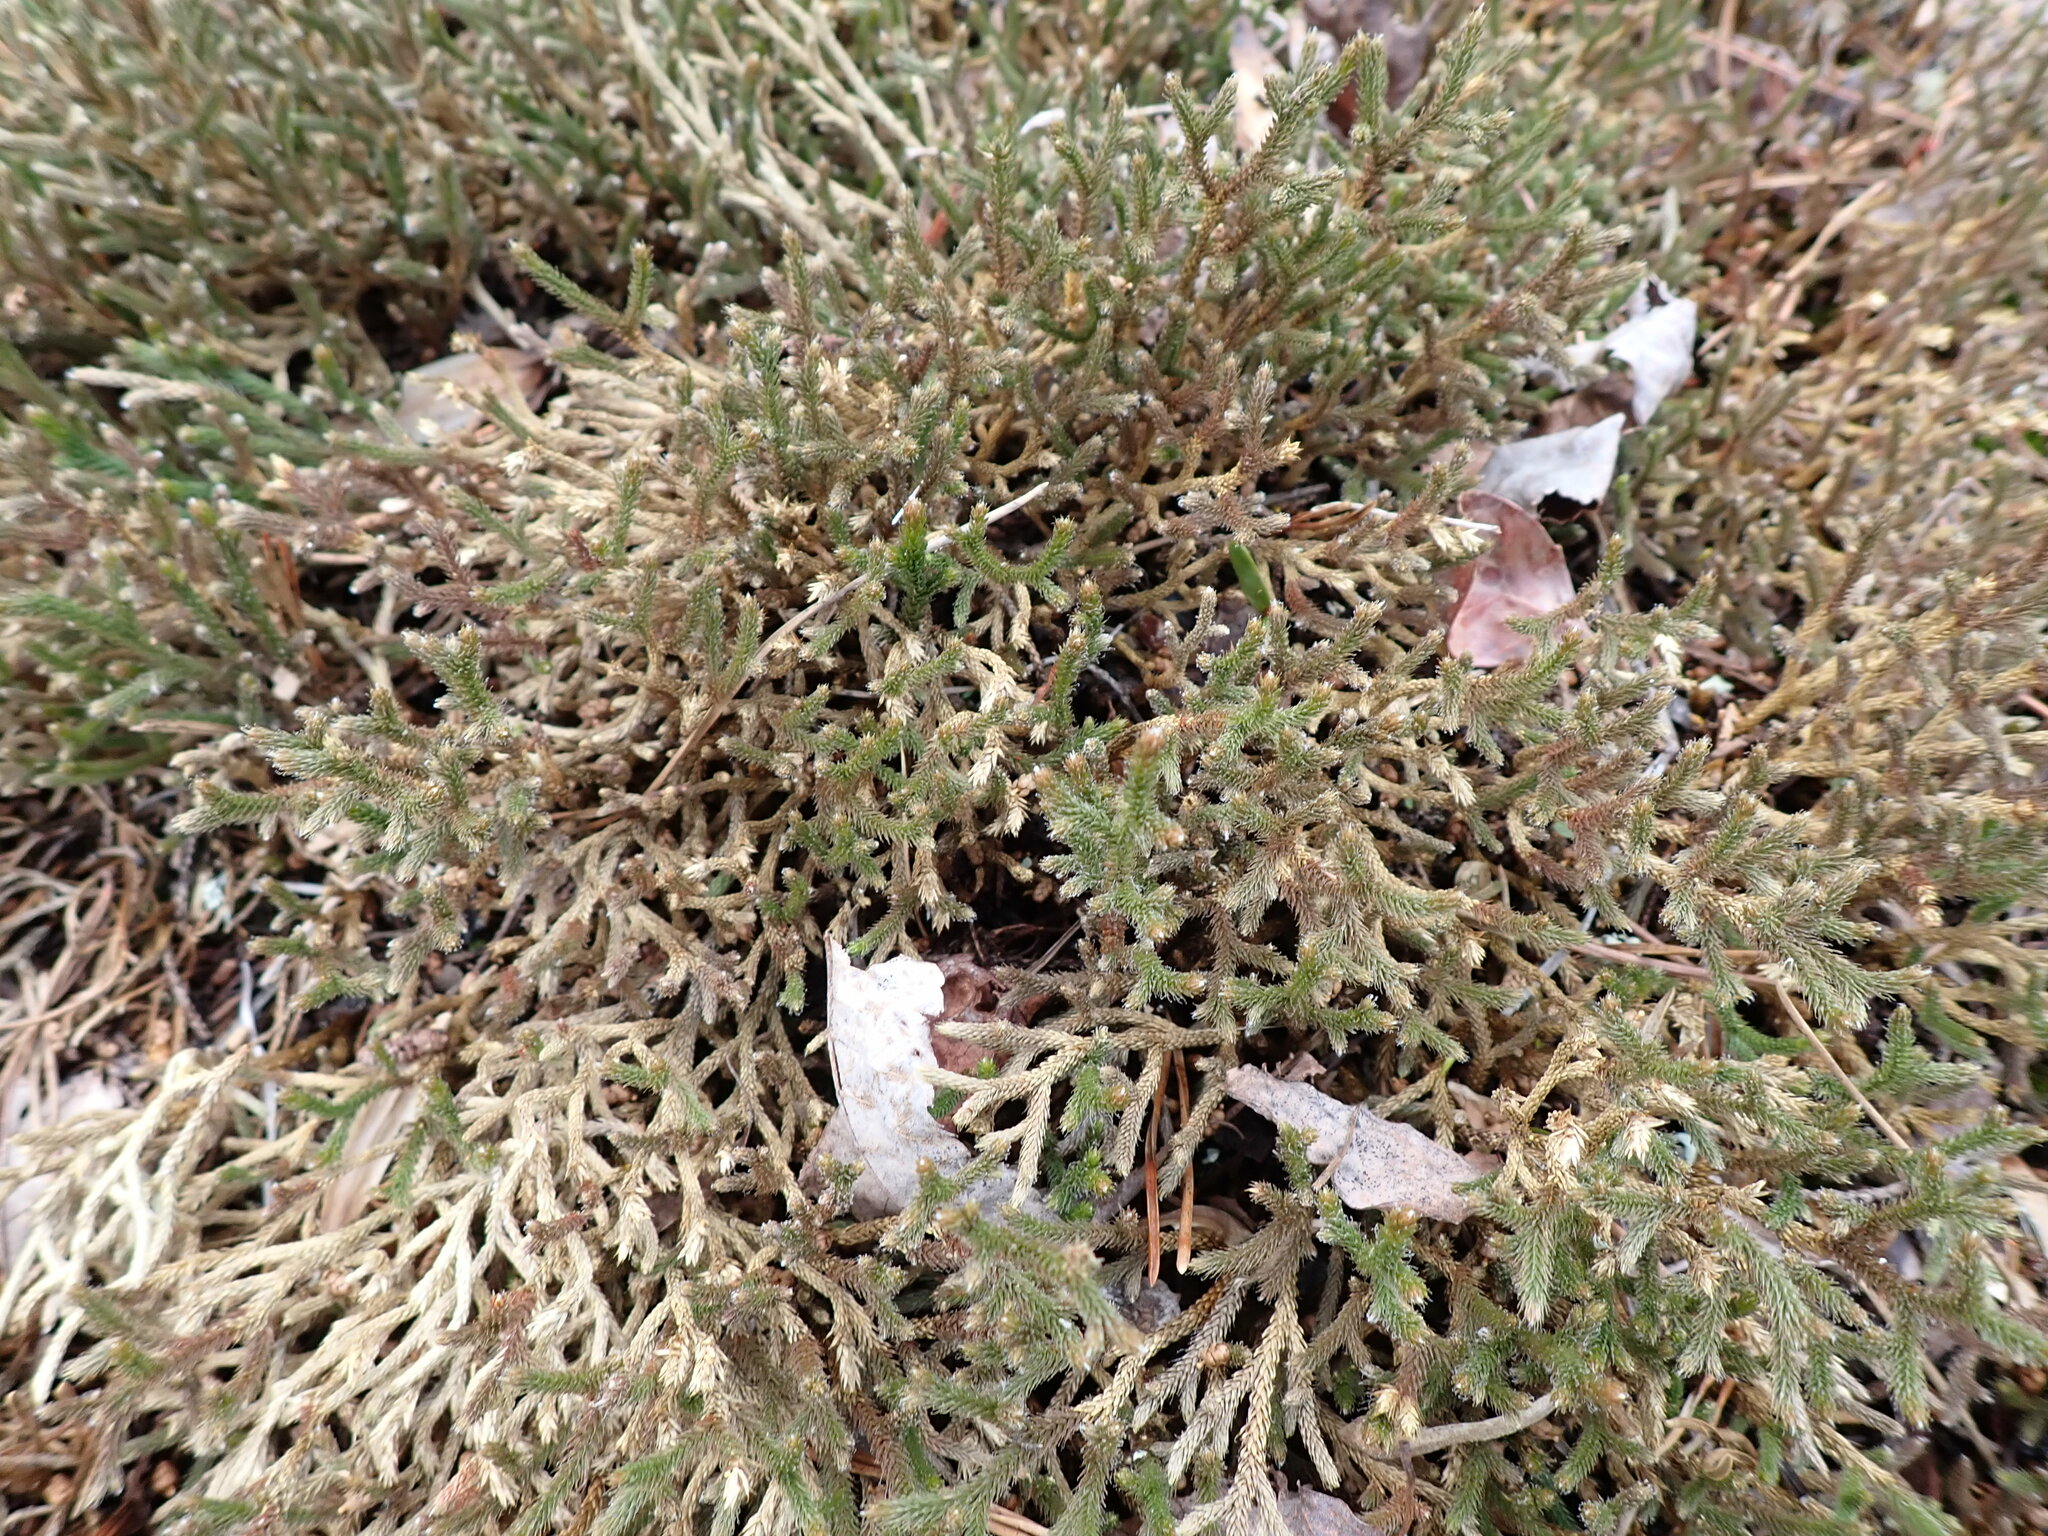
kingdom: Plantae
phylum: Tracheophyta
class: Lycopodiopsida
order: Selaginellales
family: Selaginellaceae
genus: Selaginella
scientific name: Selaginella tortipila
